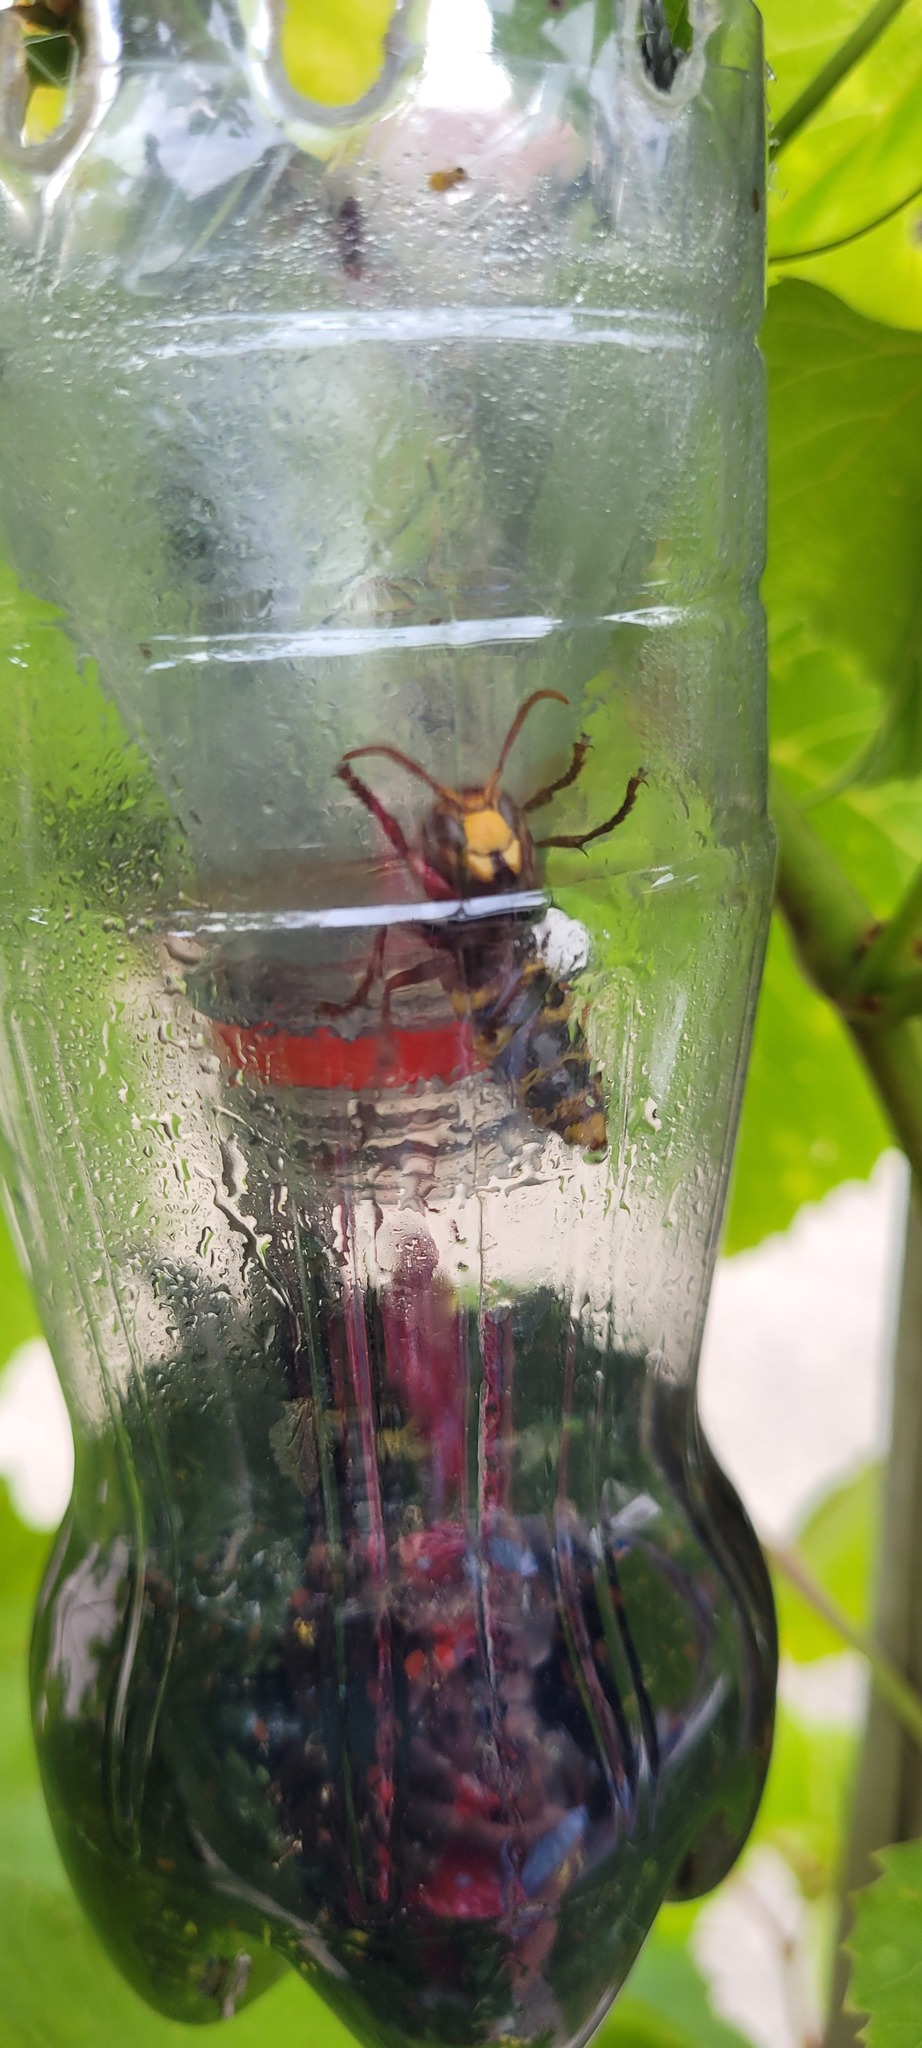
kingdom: Animalia
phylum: Arthropoda
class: Insecta
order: Hymenoptera
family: Vespidae
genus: Vespa
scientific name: Vespa crabro
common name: Hornet
